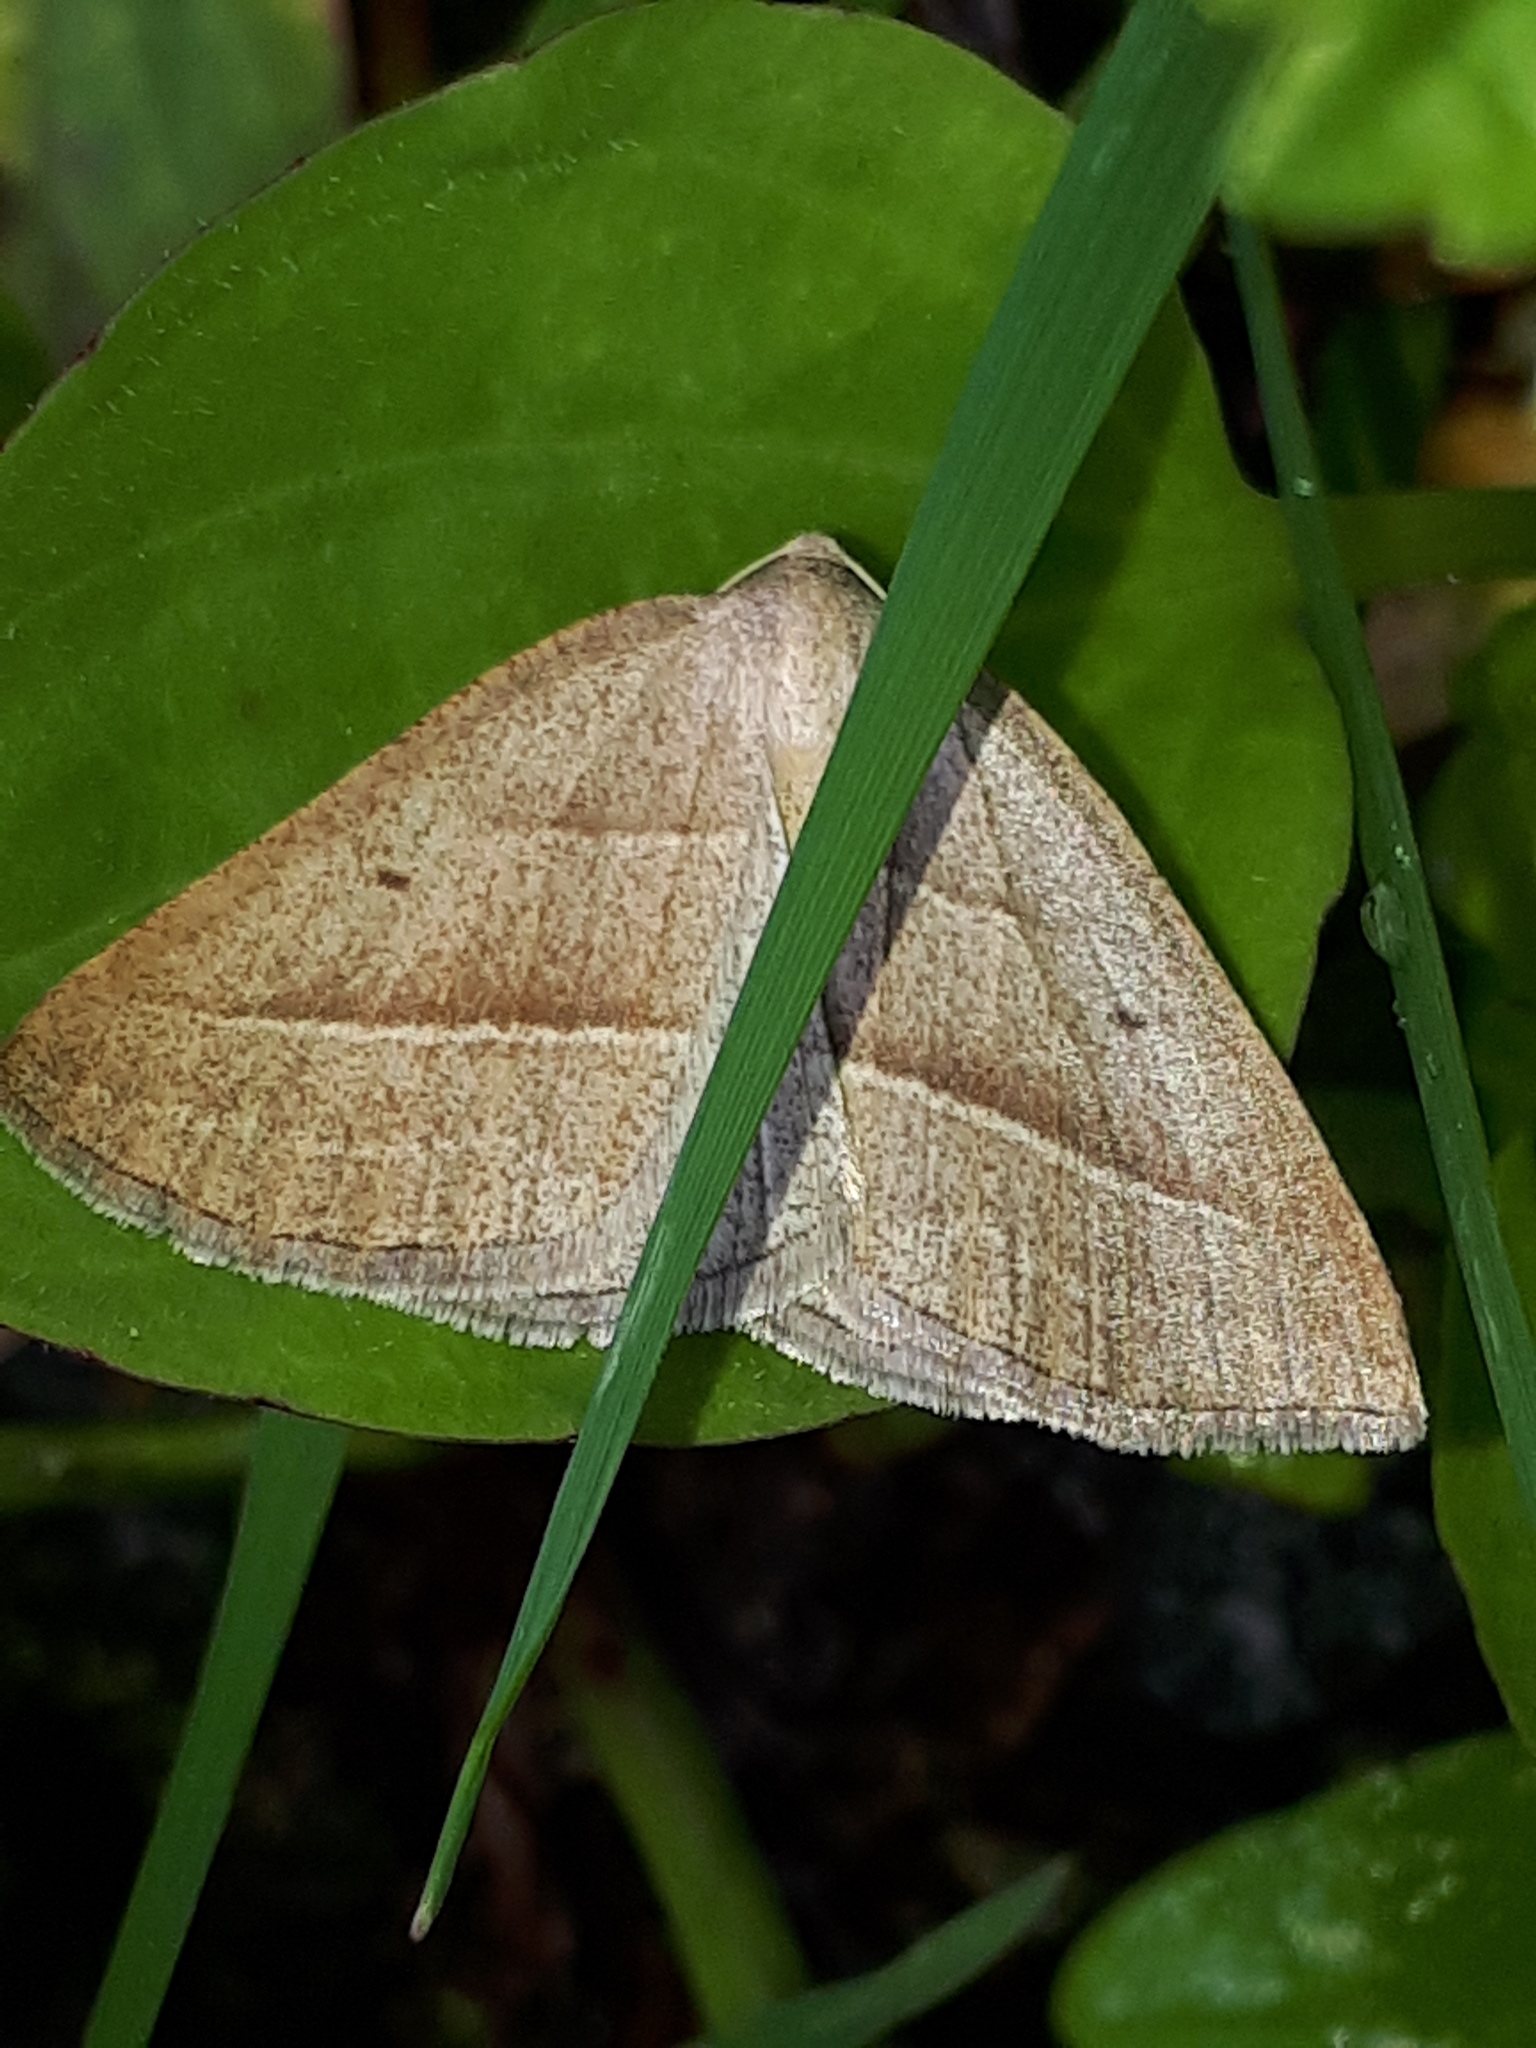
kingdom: Animalia
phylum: Arthropoda
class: Insecta
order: Lepidoptera
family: Pterophoridae
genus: Pterophorus
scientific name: Pterophorus Petrophora chlorosata
